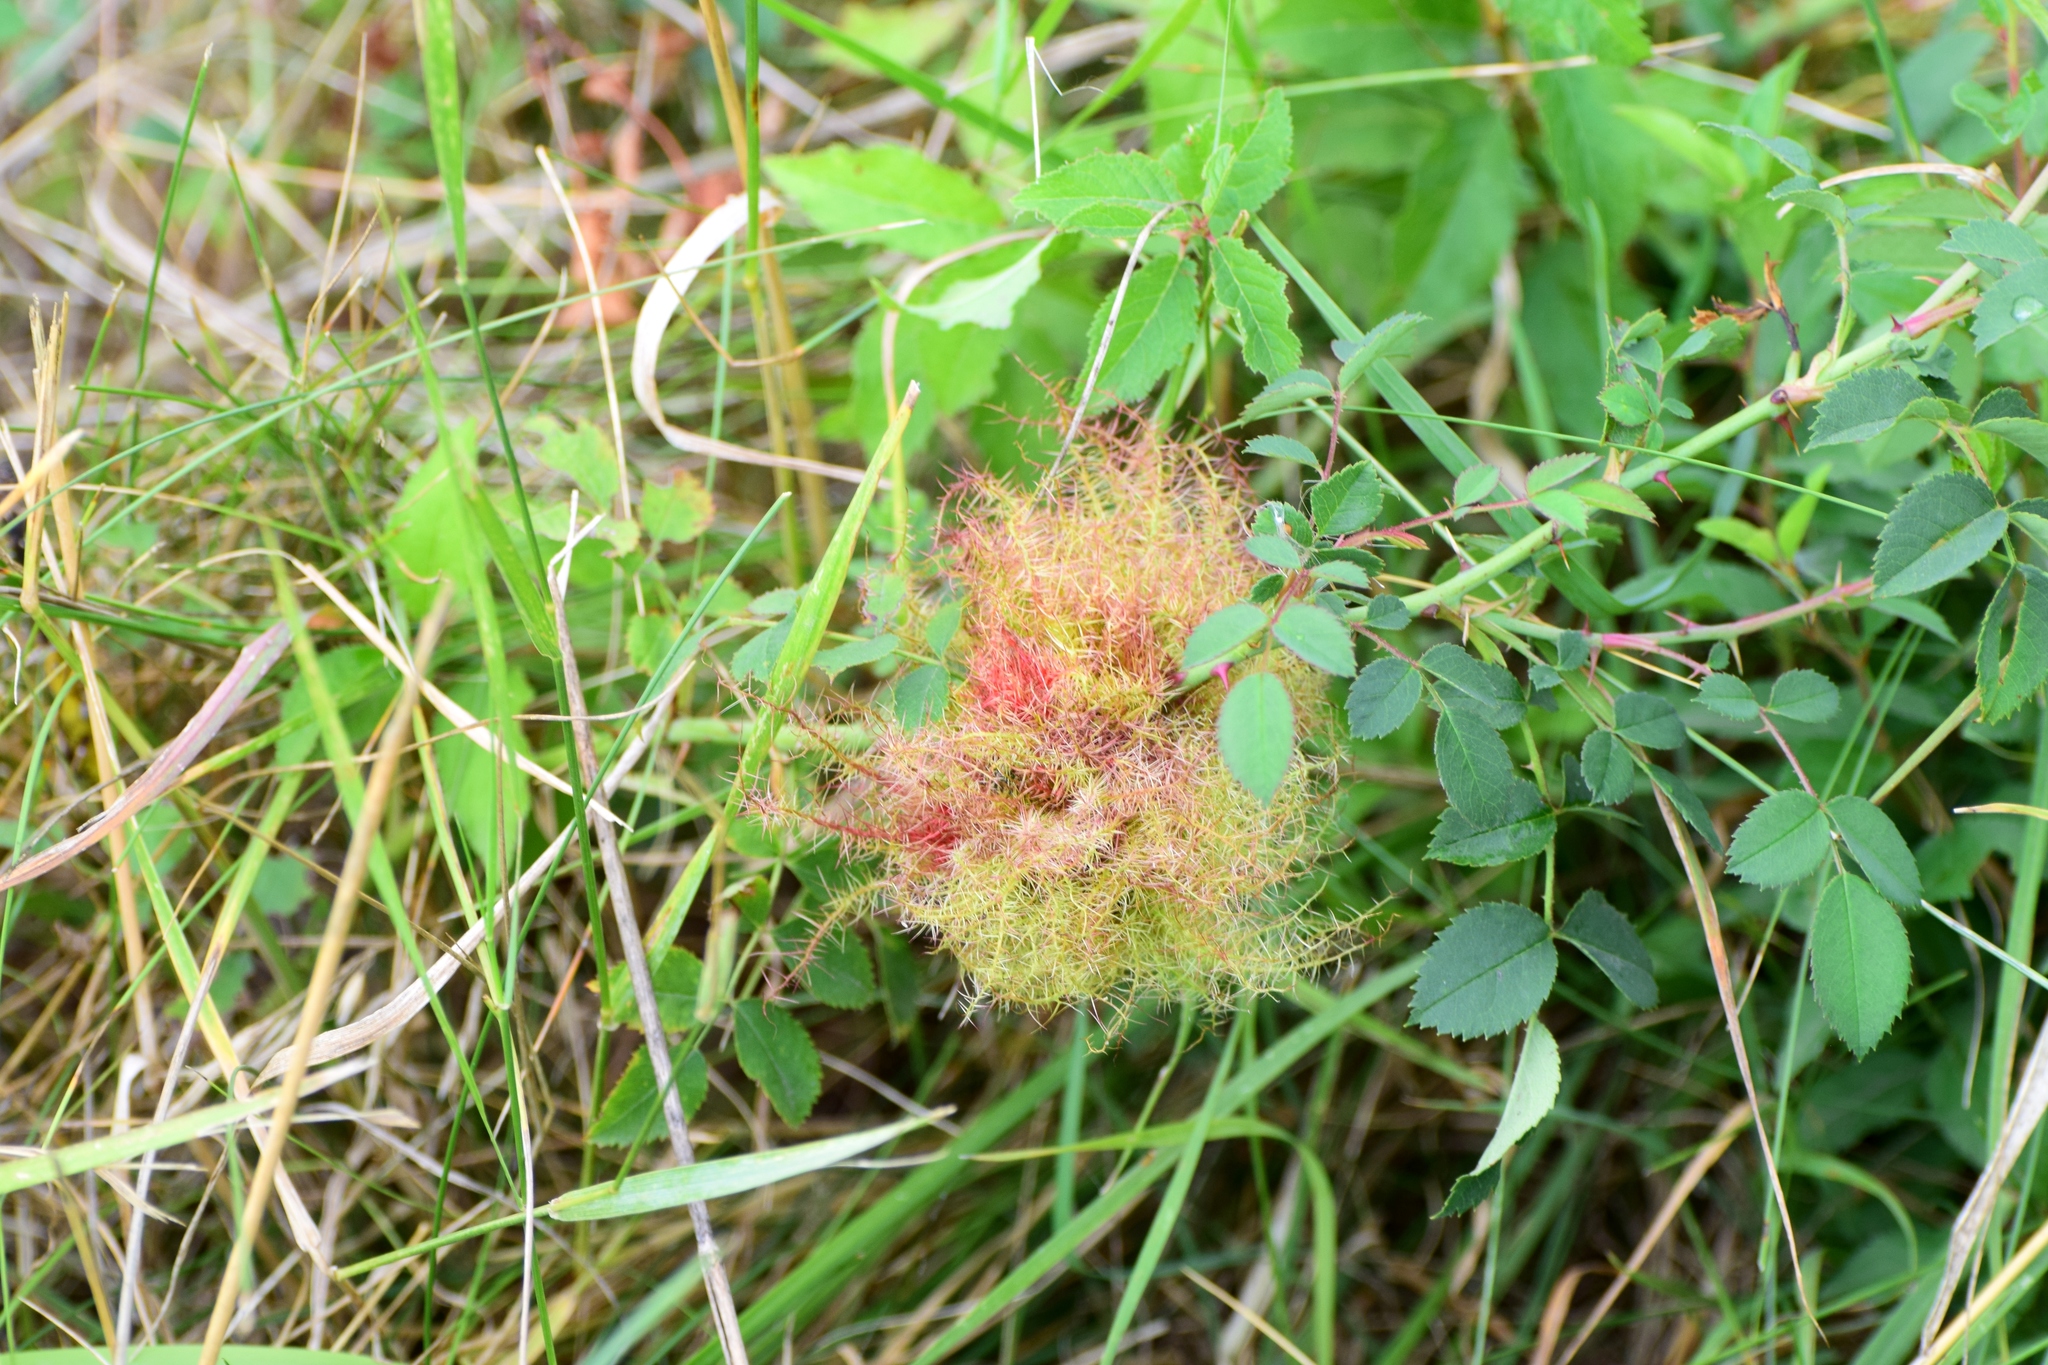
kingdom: Animalia
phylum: Arthropoda
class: Insecta
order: Hymenoptera
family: Cynipidae
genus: Diplolepis
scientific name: Diplolepis rosae
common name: Bedeguar gall
